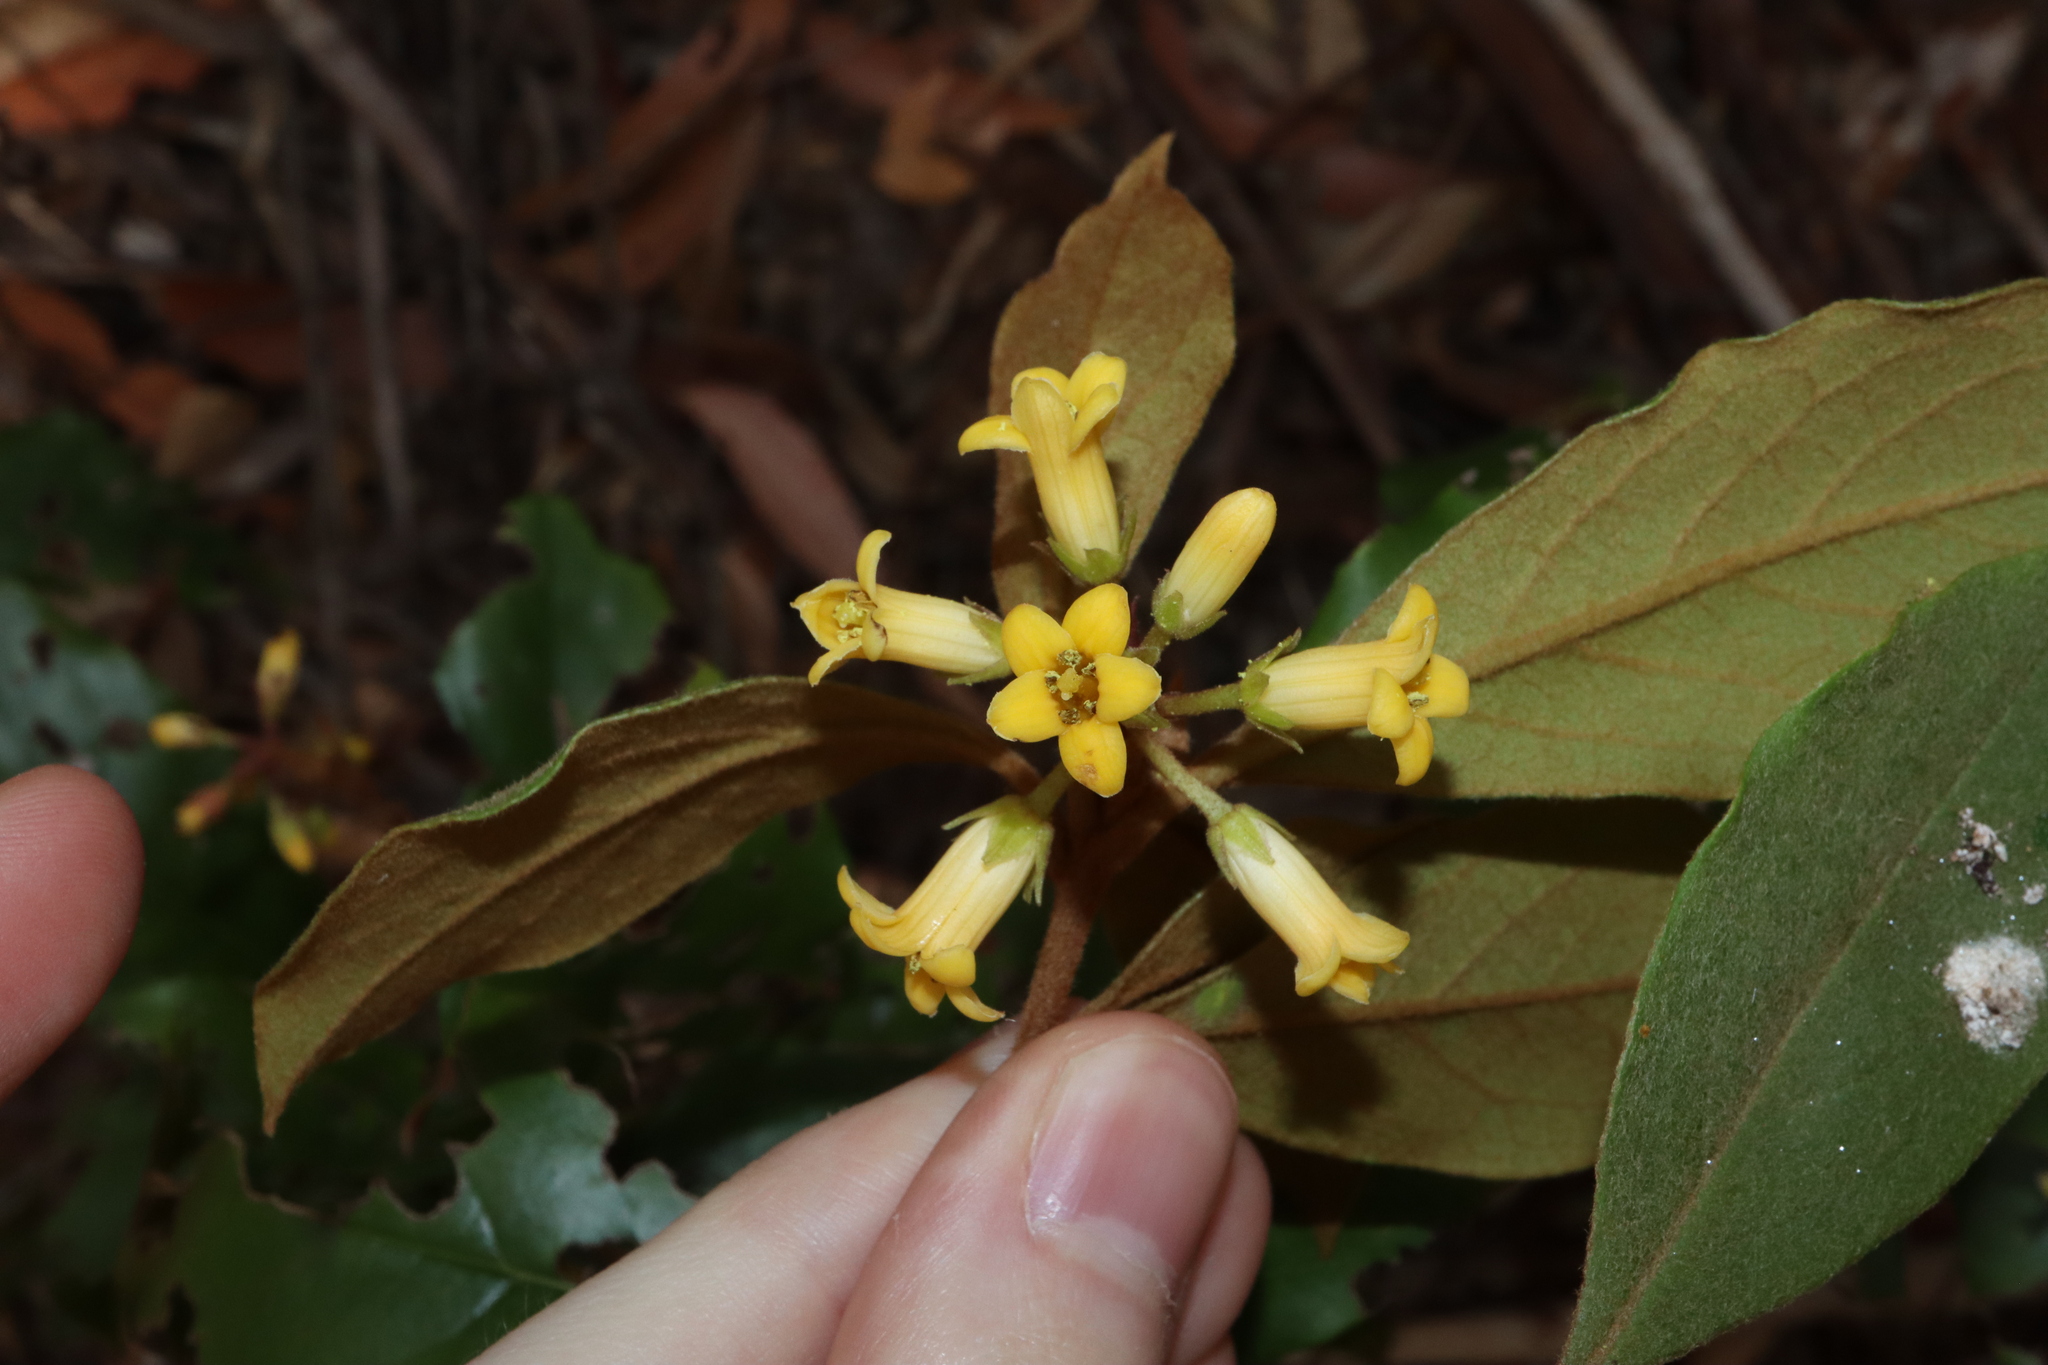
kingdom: Plantae
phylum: Tracheophyta
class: Magnoliopsida
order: Apiales
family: Pittosporaceae
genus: Pittosporum
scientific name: Pittosporum revolutum
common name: Brisbane-laurel
